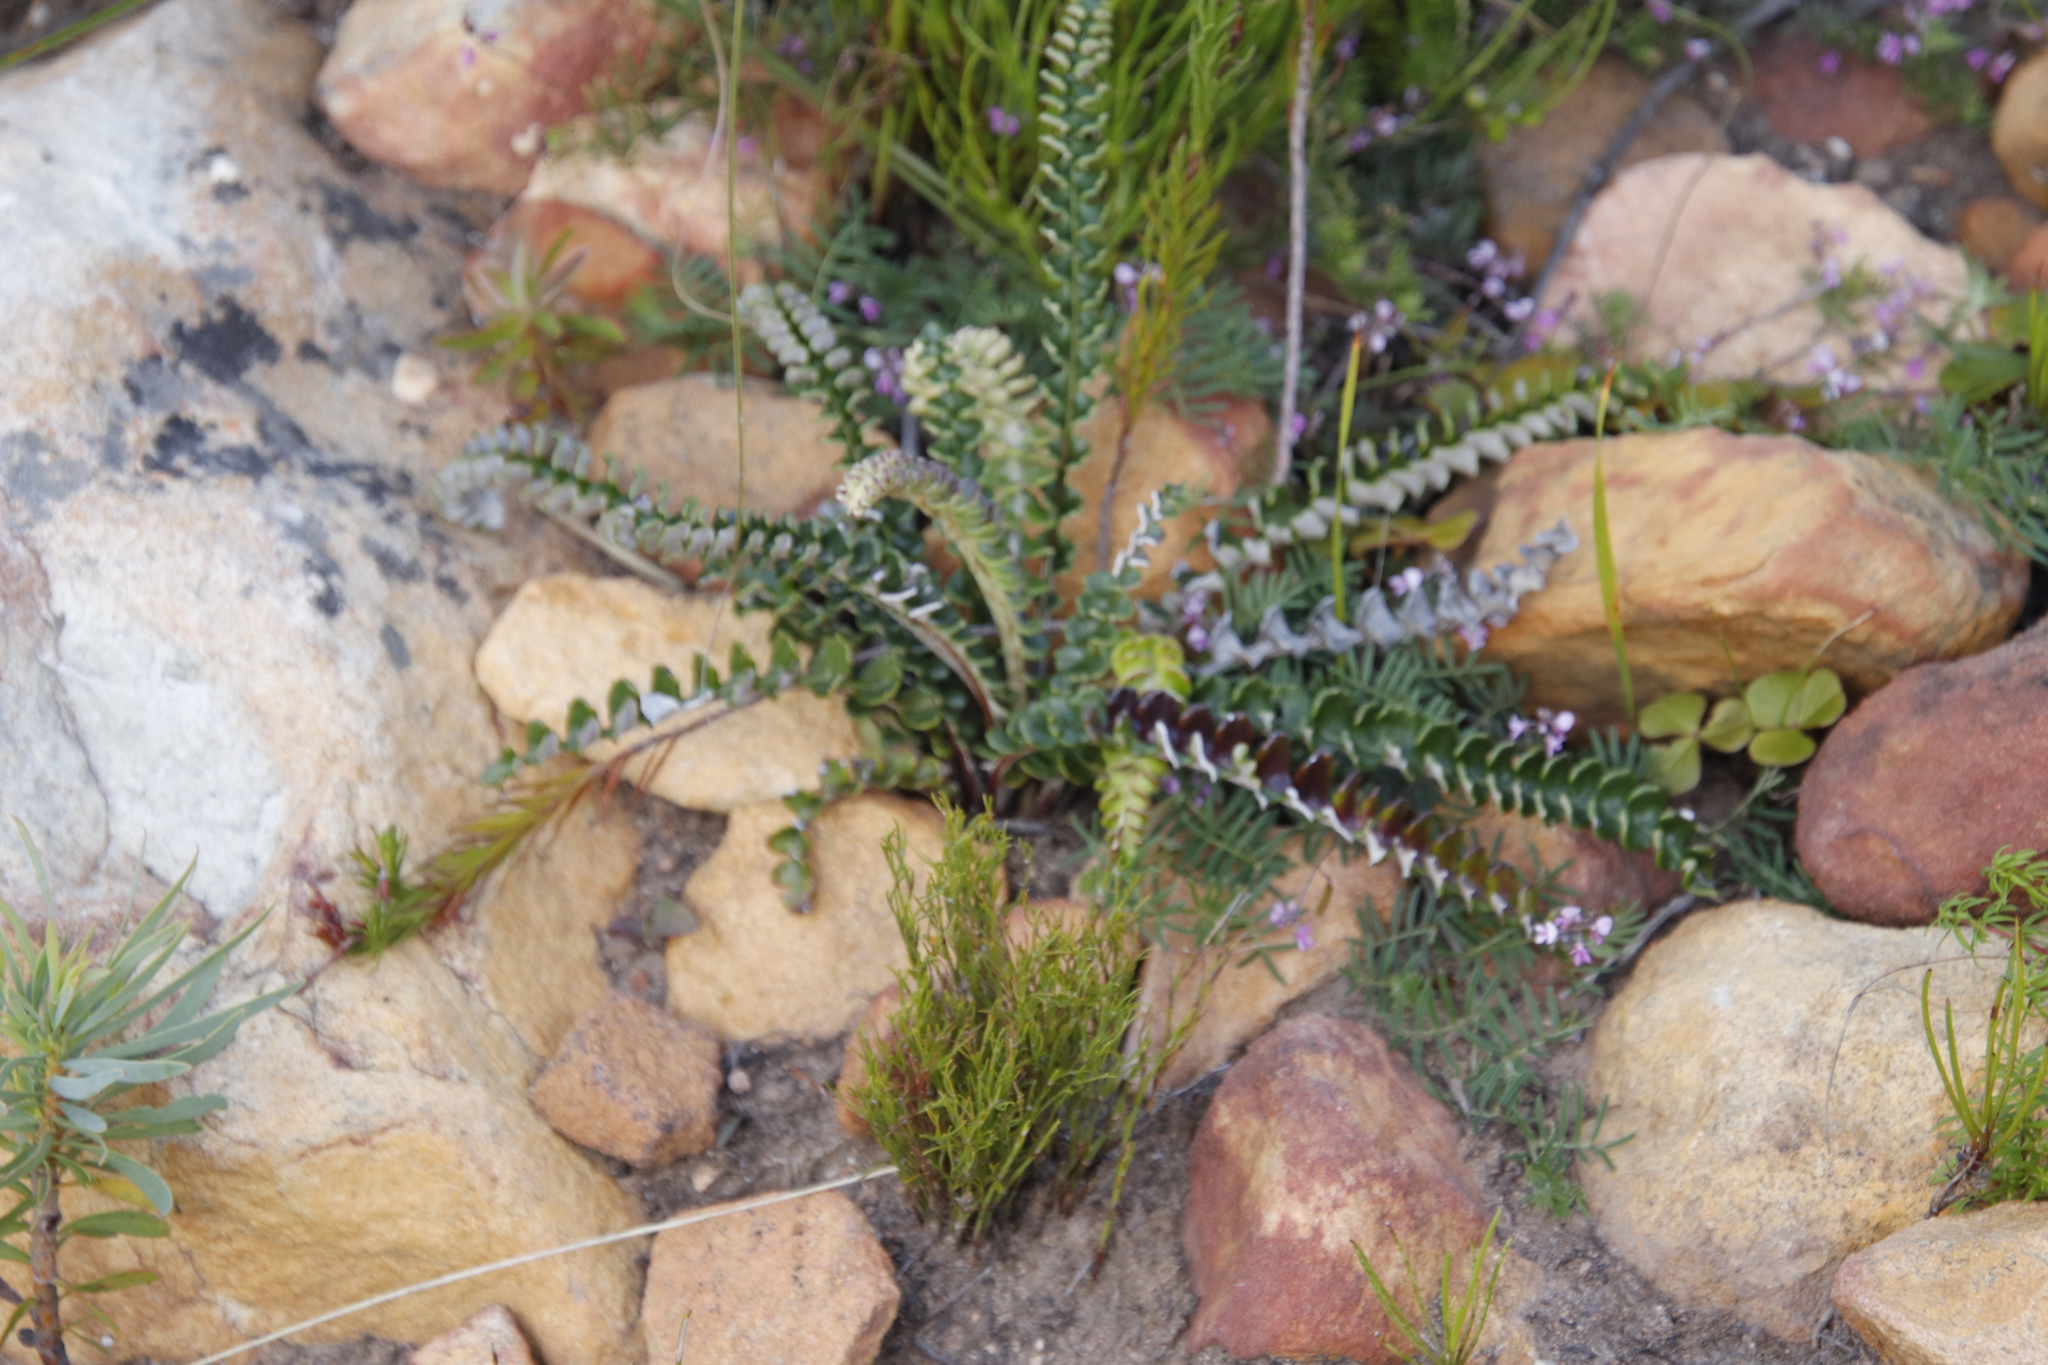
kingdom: Plantae
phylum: Tracheophyta
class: Magnoliopsida
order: Asterales
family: Asteraceae
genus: Gerbera
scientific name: Gerbera linnaei
